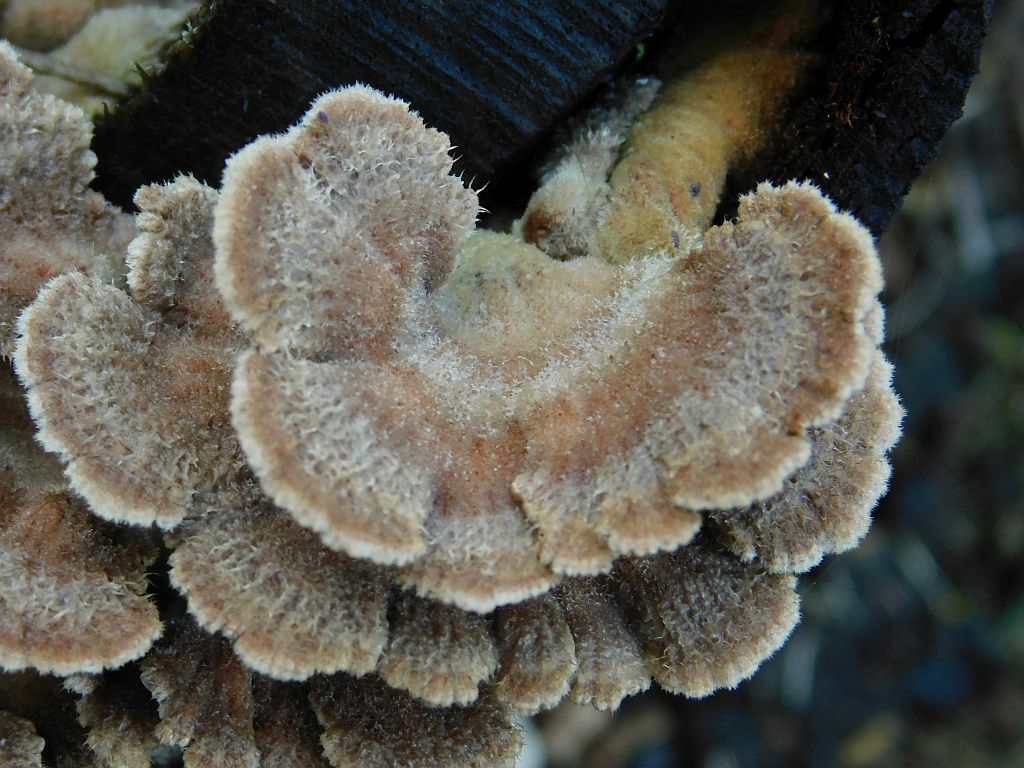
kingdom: Fungi
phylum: Basidiomycota
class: Agaricomycetes
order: Agaricales
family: Schizophyllaceae
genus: Schizophyllum
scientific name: Schizophyllum commune
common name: Common porecrust
